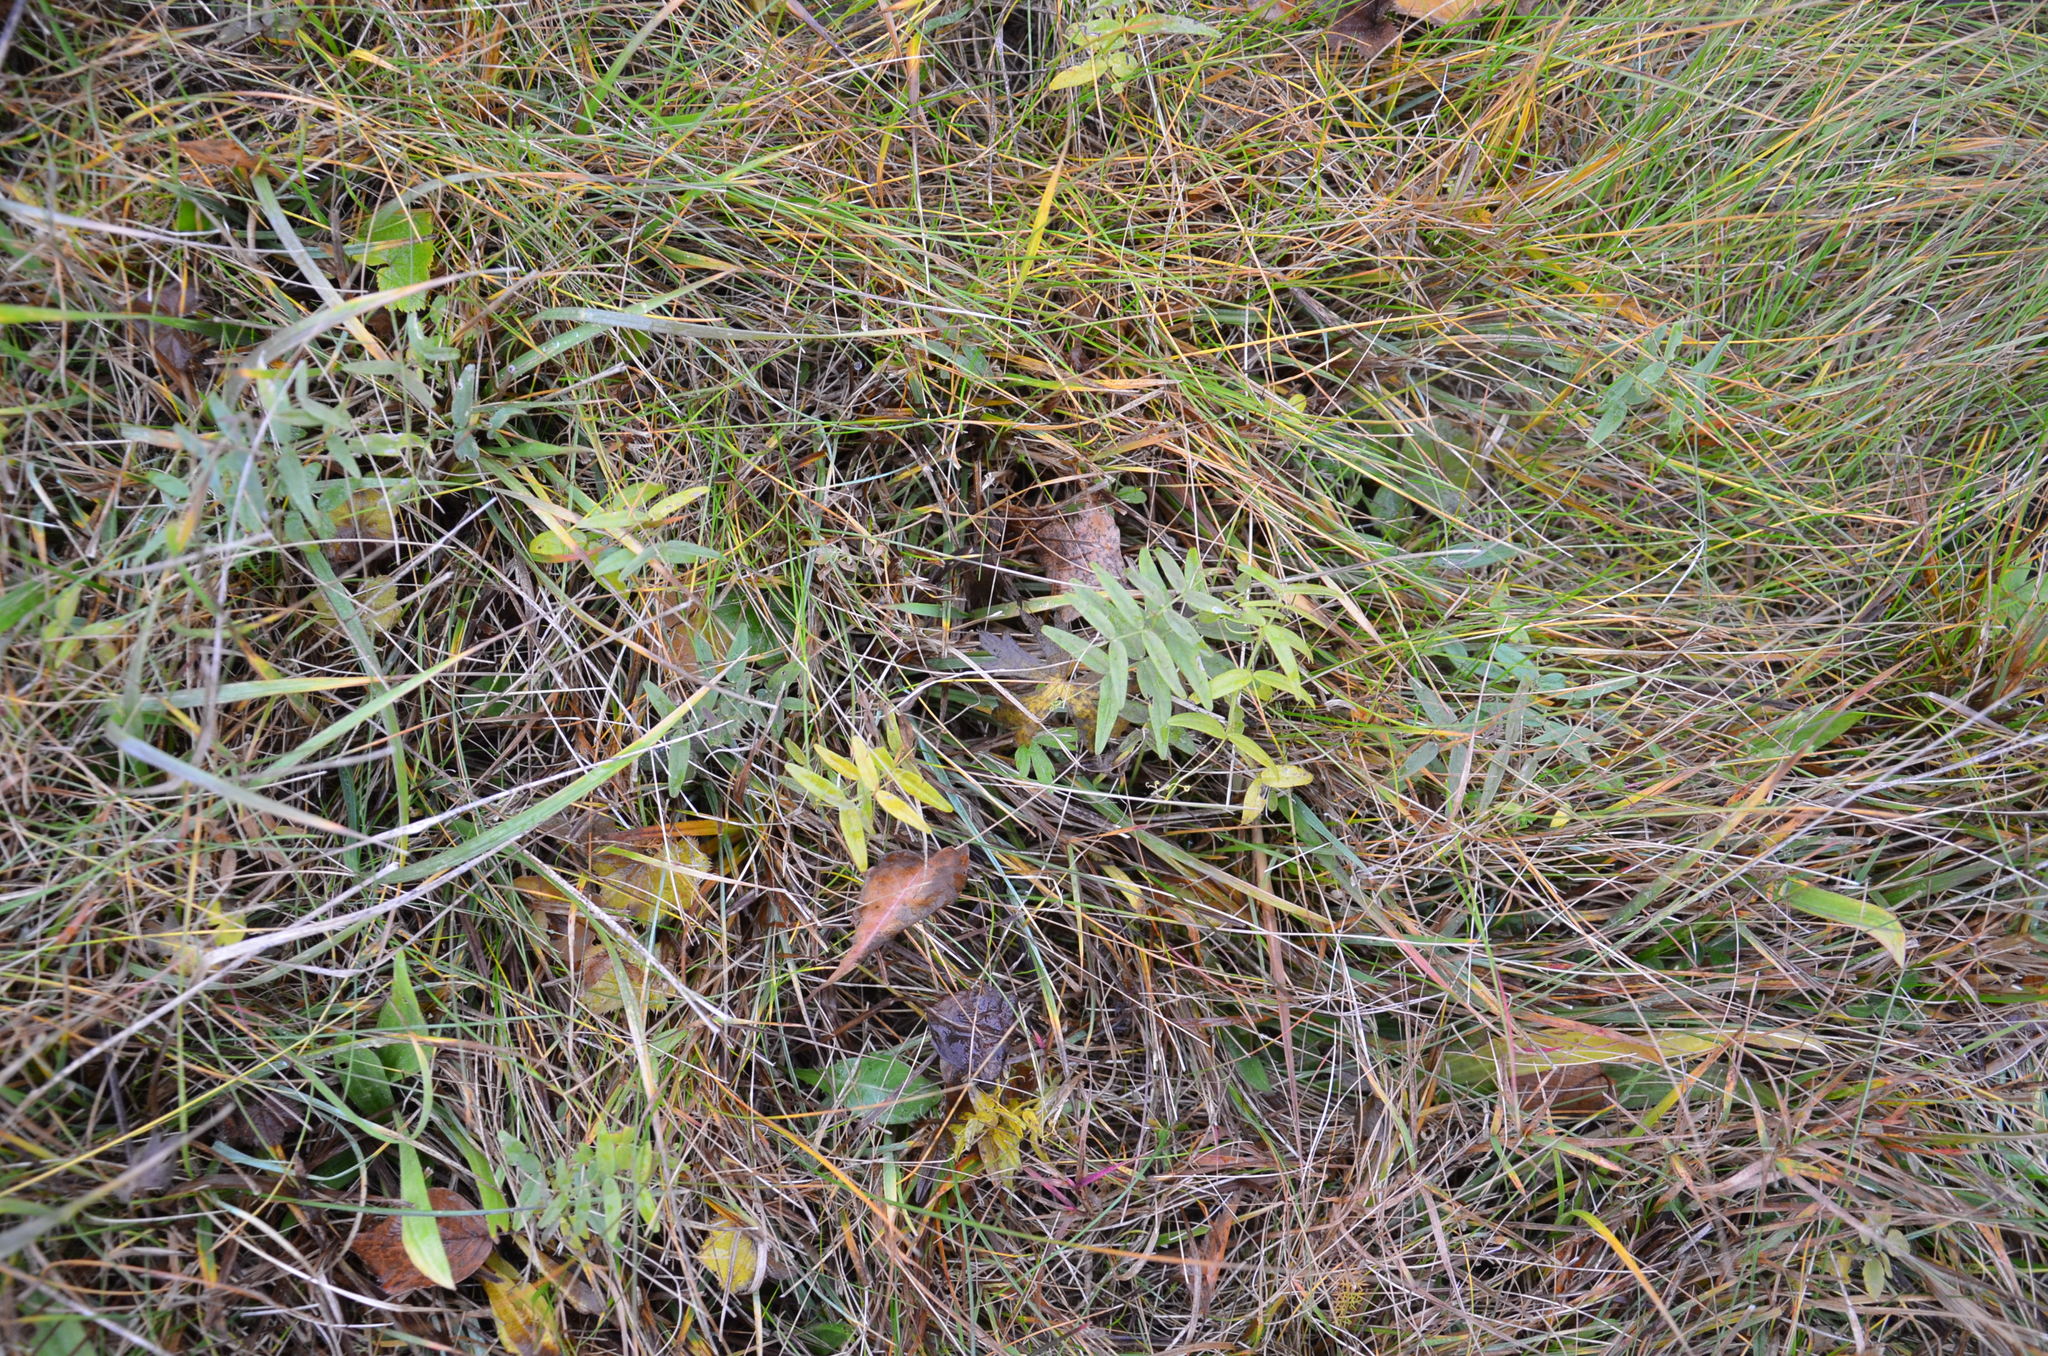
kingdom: Plantae
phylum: Tracheophyta
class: Magnoliopsida
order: Fabales
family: Fabaceae
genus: Vicia
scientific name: Vicia sepium
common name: Bush vetch
